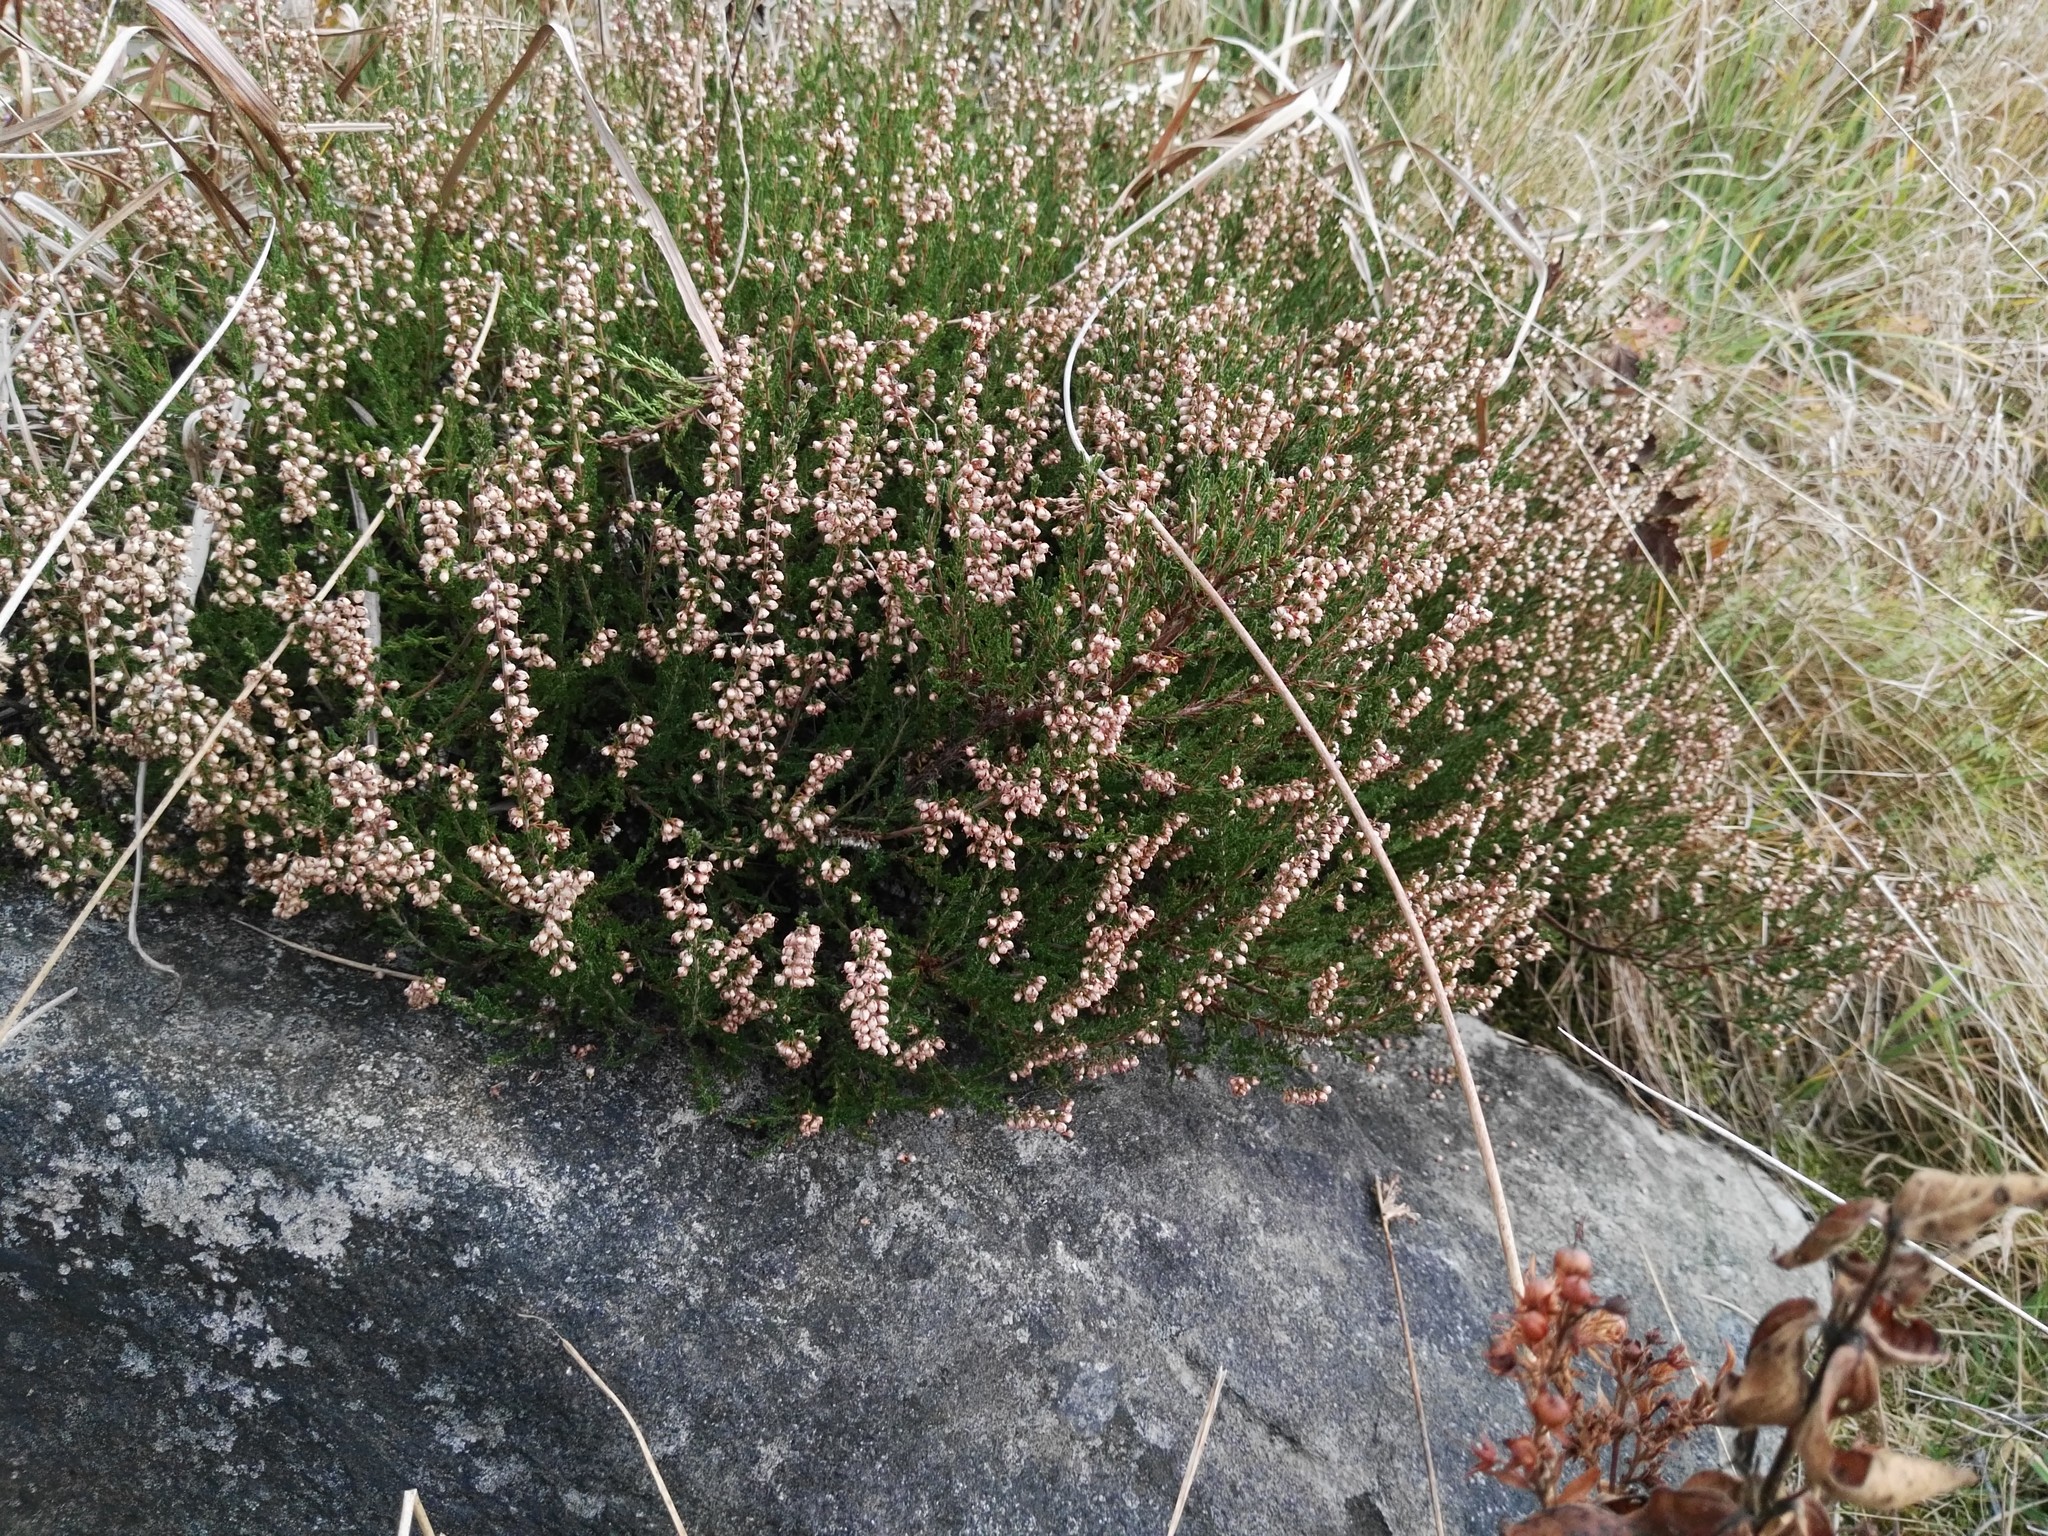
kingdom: Plantae
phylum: Tracheophyta
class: Magnoliopsida
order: Ericales
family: Ericaceae
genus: Calluna
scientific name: Calluna vulgaris
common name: Heather
